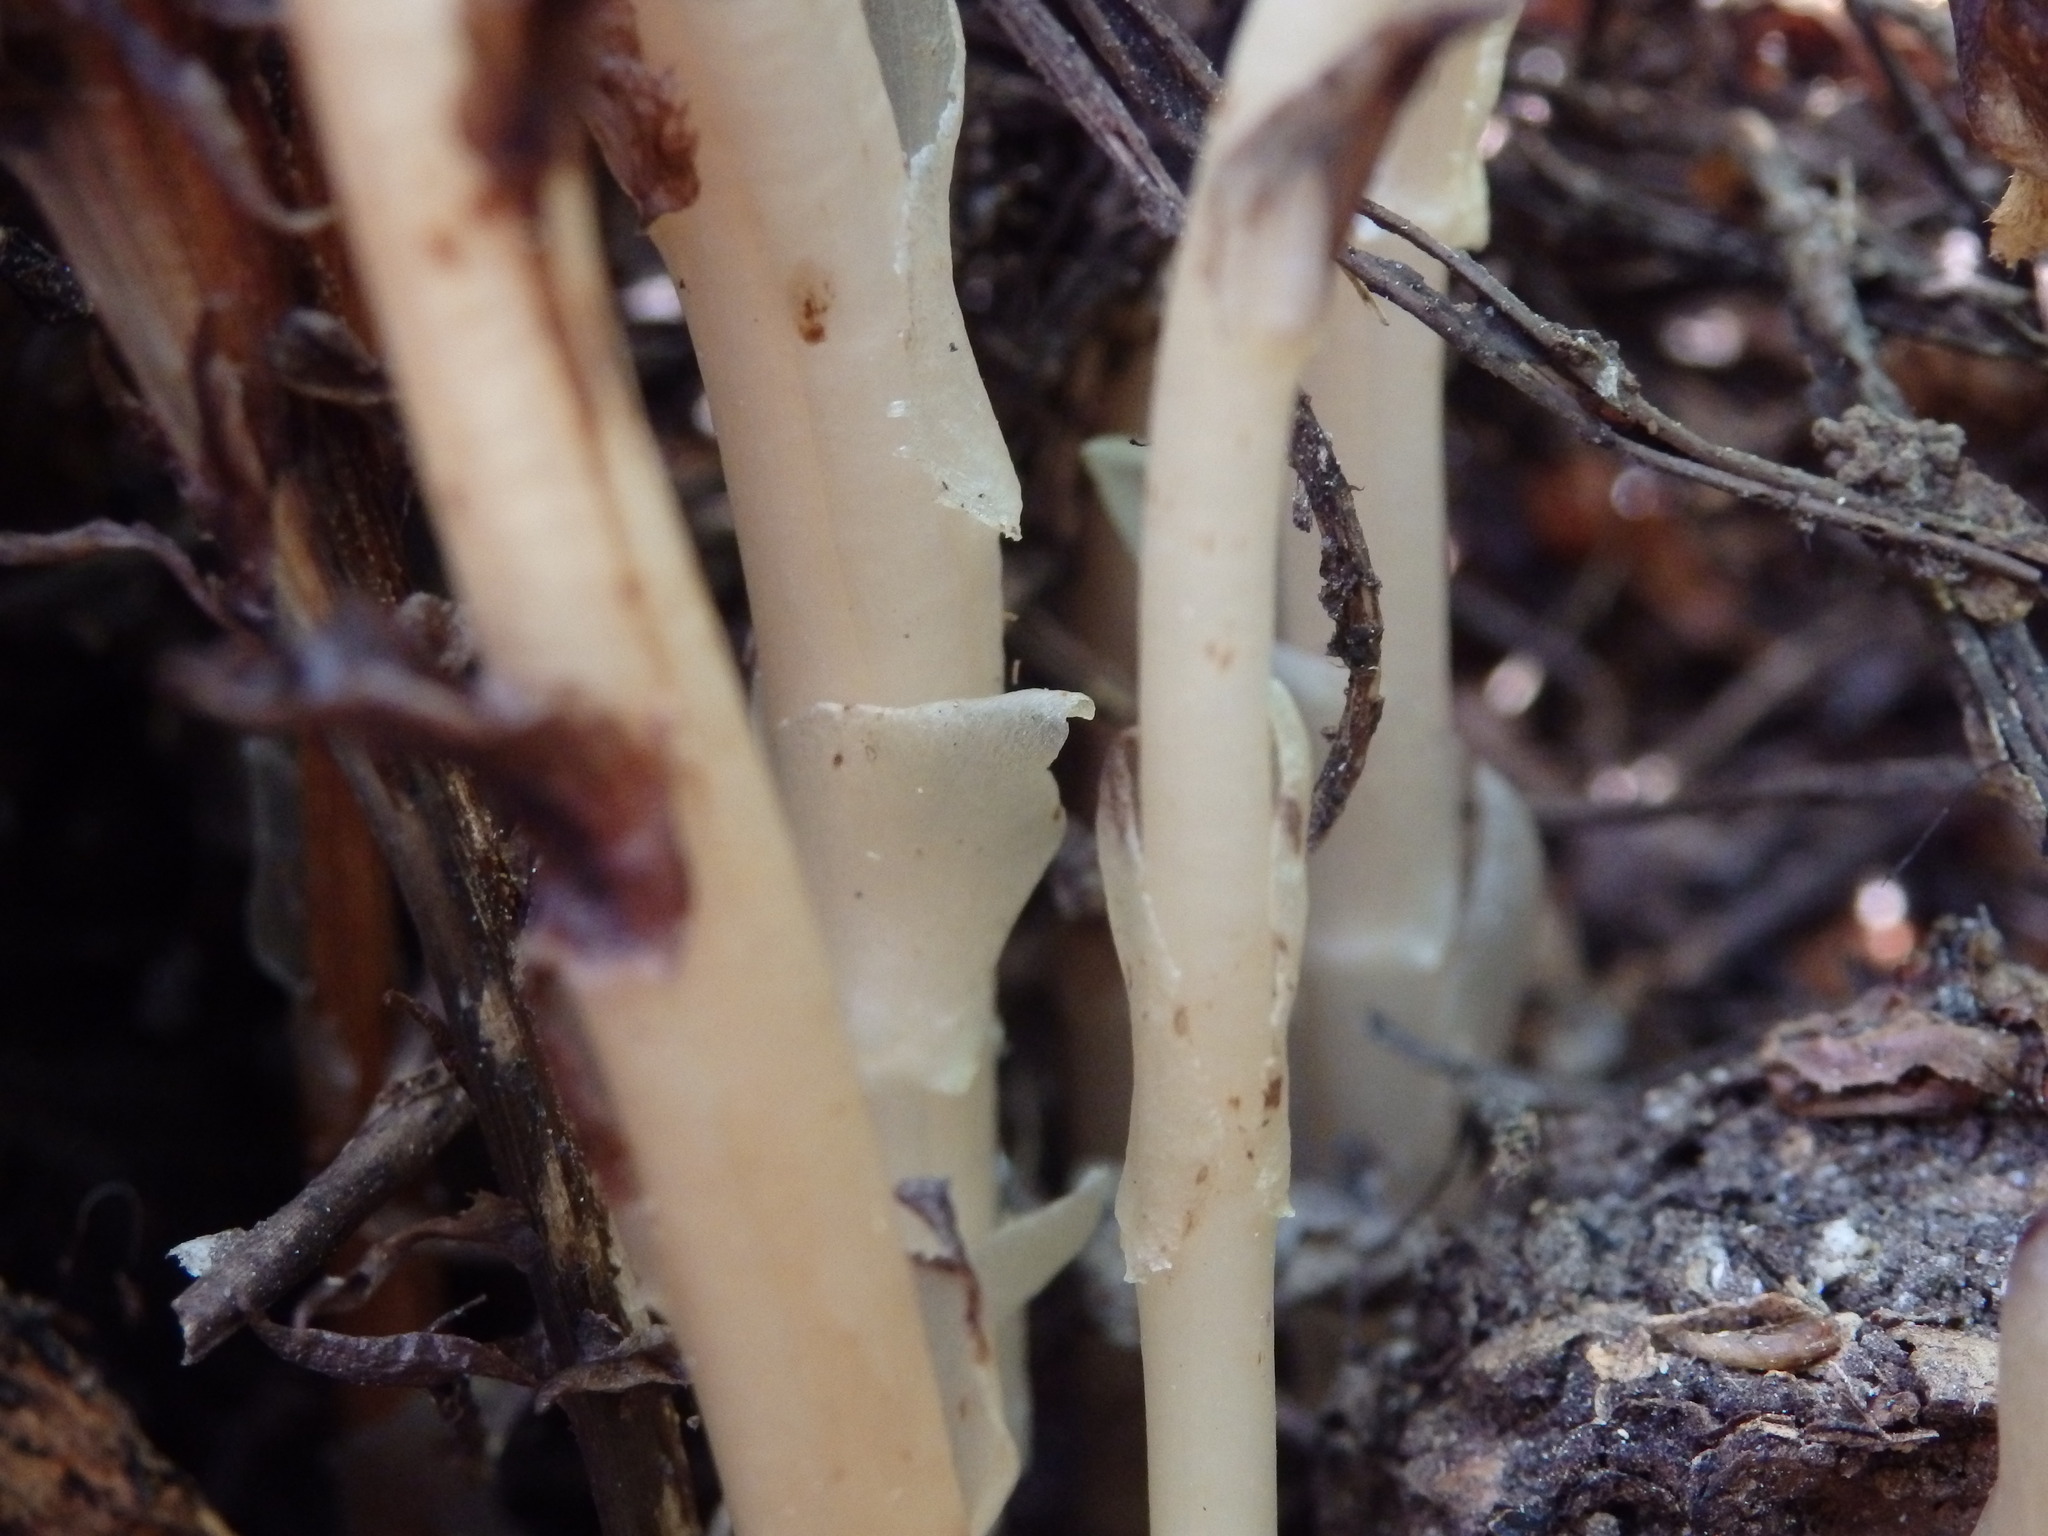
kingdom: Plantae
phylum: Tracheophyta
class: Magnoliopsida
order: Ericales
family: Ericaceae
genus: Hypopitys
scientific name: Hypopitys monotropa
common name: Yellow bird's-nest
